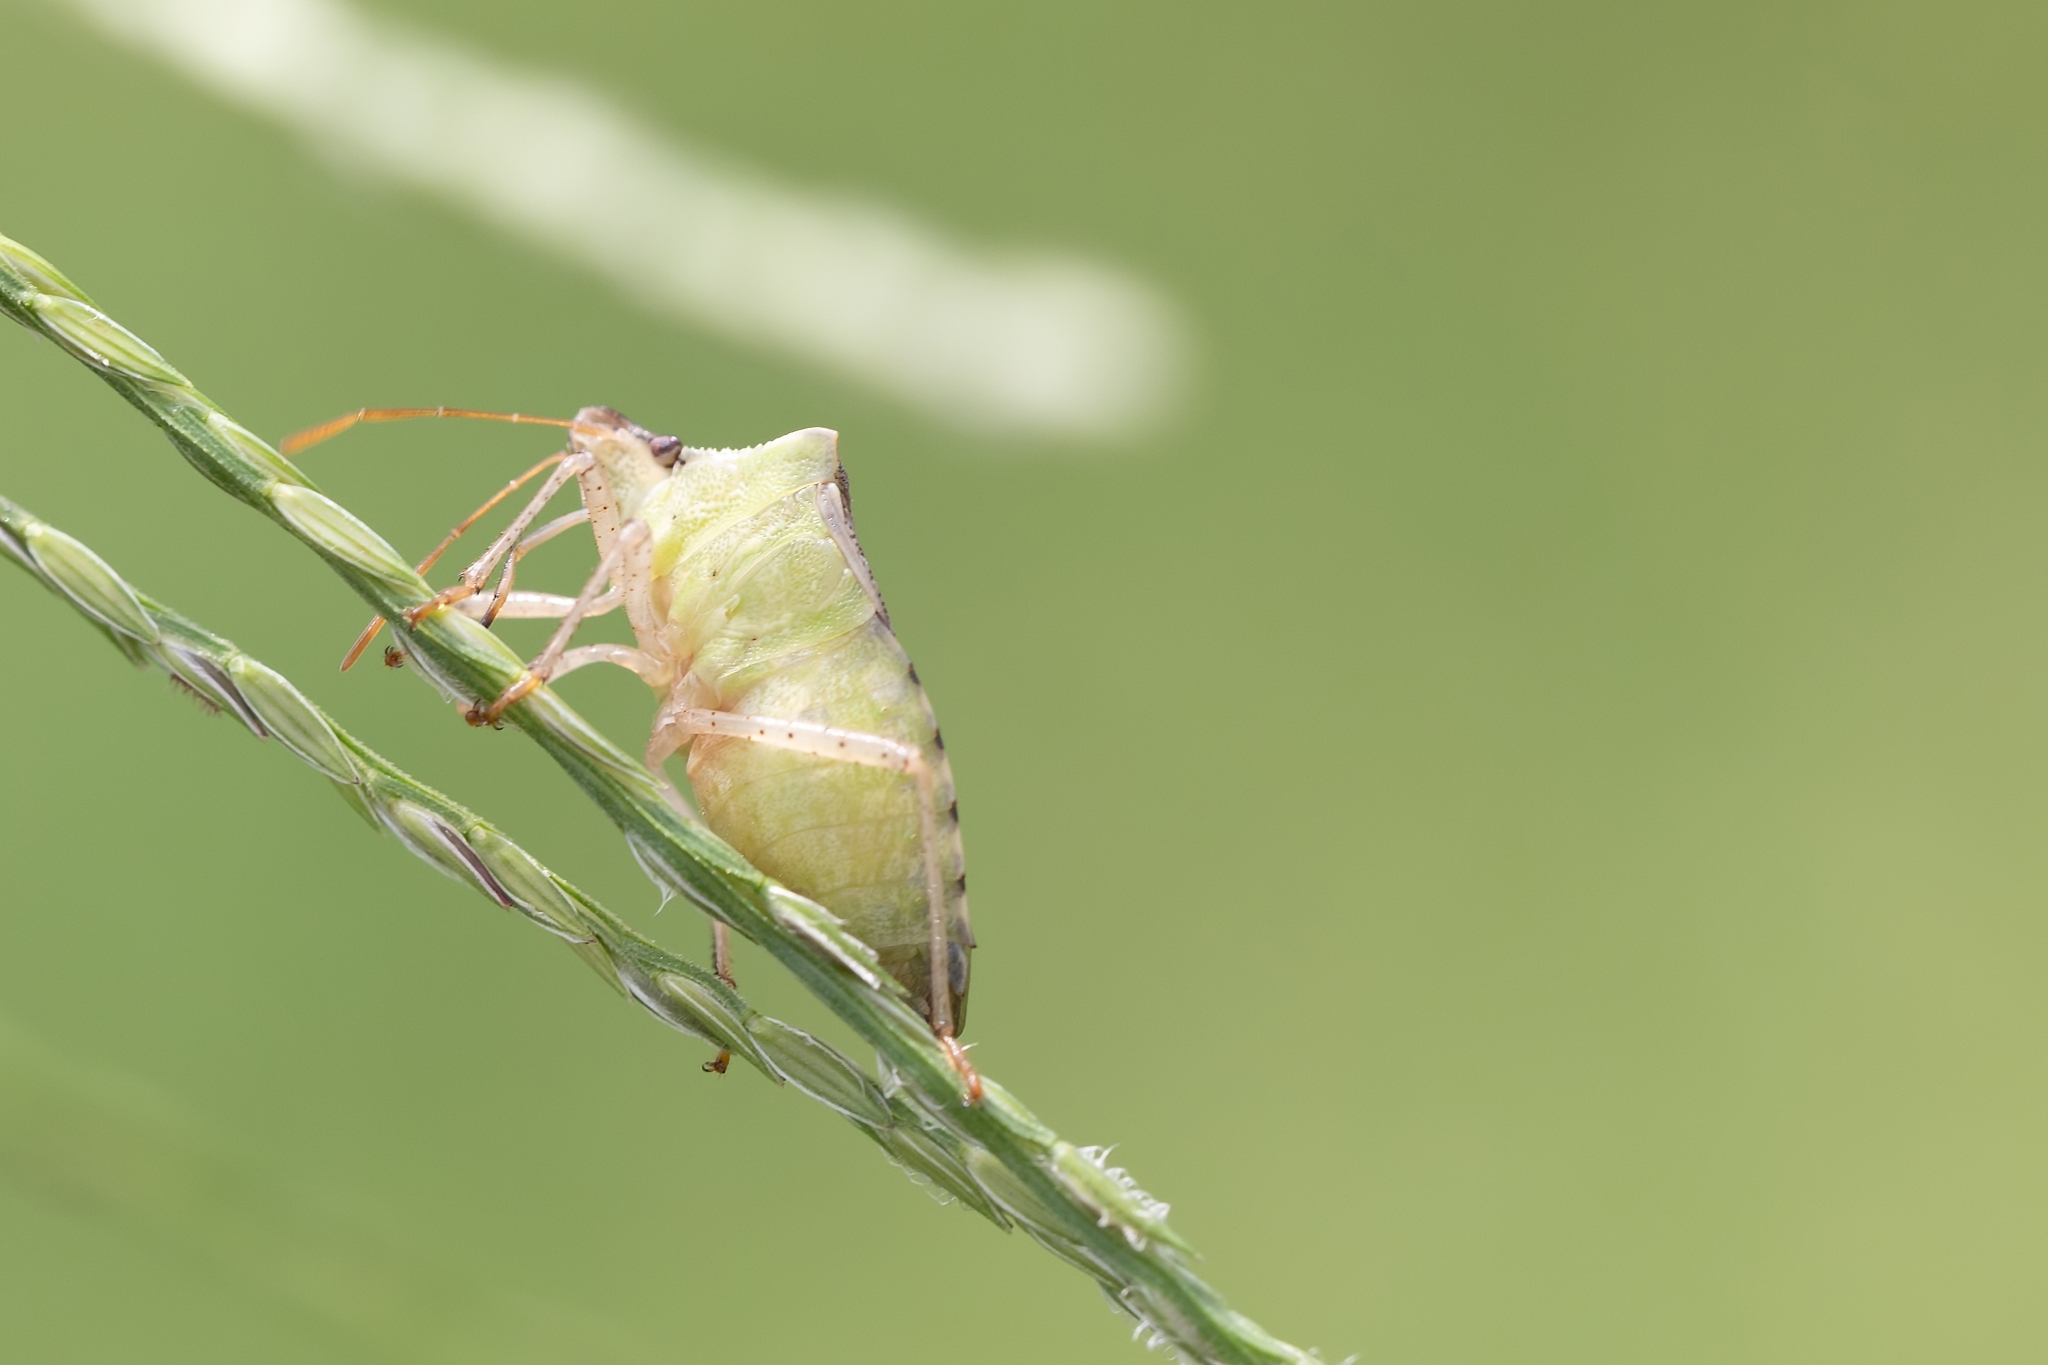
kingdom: Animalia
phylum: Arthropoda
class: Insecta
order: Hemiptera
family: Pentatomidae
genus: Euschistus
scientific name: Euschistus servus
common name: Brown stink bug
